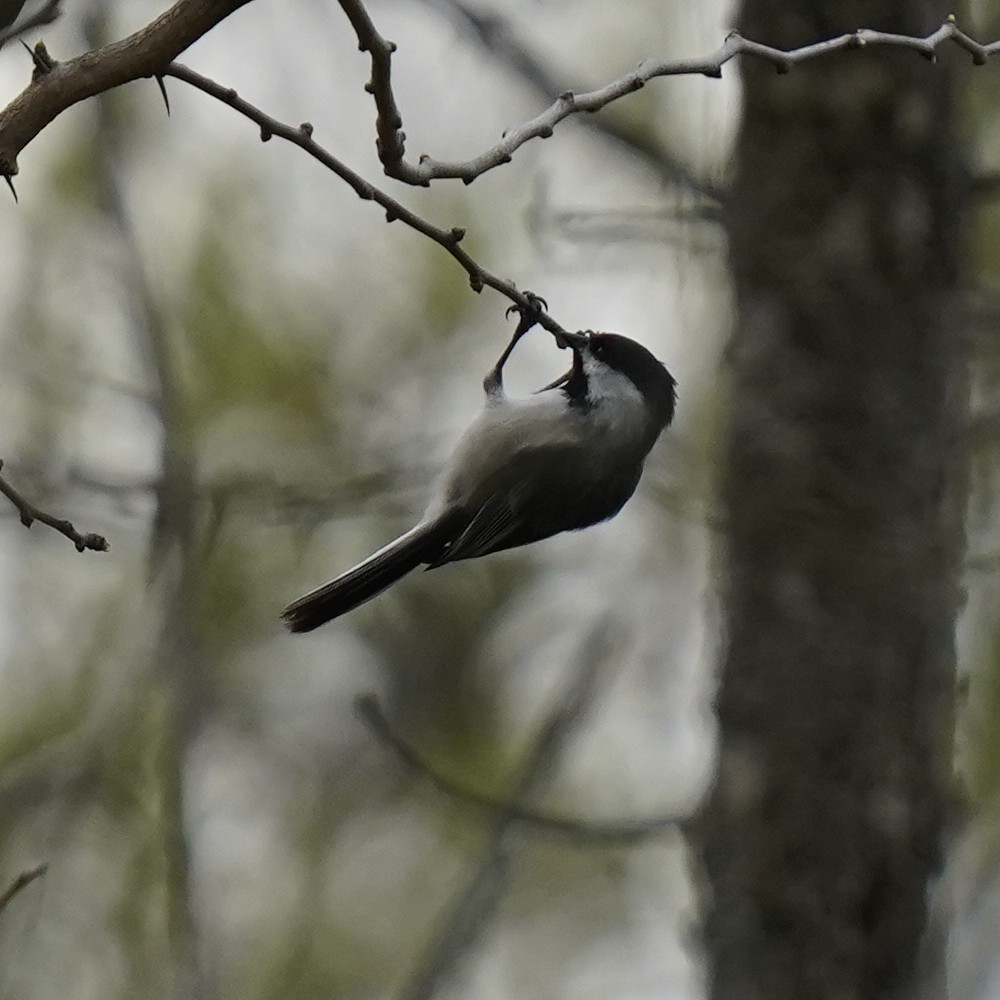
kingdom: Animalia
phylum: Chordata
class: Aves
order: Passeriformes
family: Paridae
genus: Poecile
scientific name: Poecile atricapillus
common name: Black-capped chickadee
